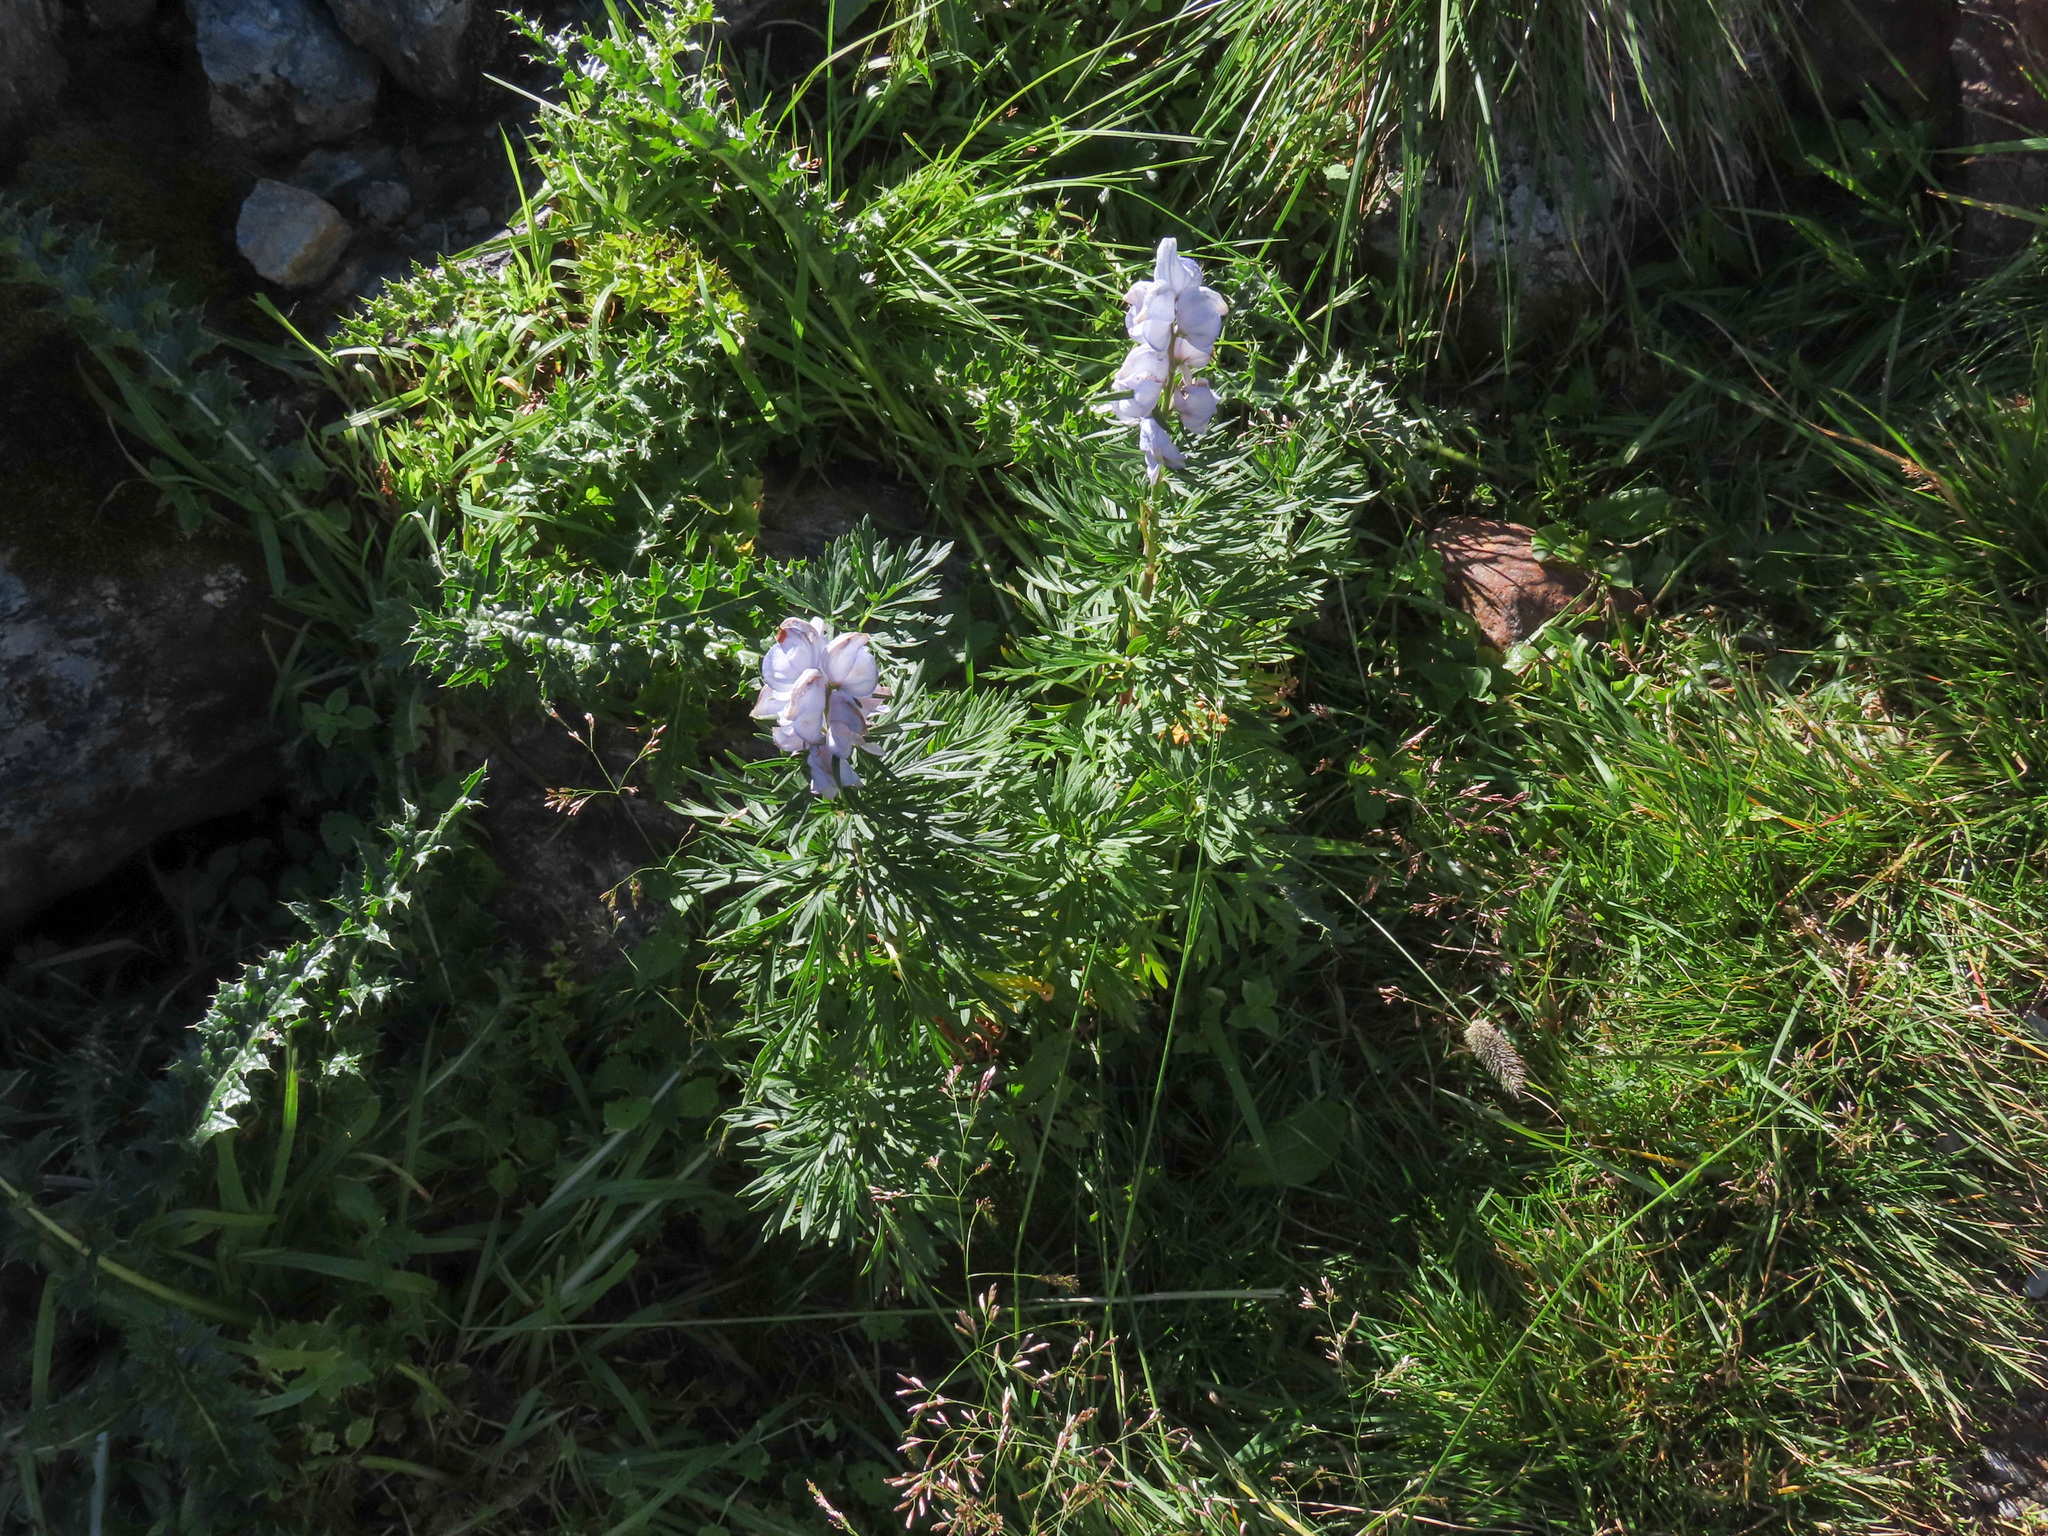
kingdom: Plantae
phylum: Tracheophyta
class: Magnoliopsida
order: Ranunculales
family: Ranunculaceae
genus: Aconitum
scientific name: Aconitum napellus
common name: Garden monkshood
